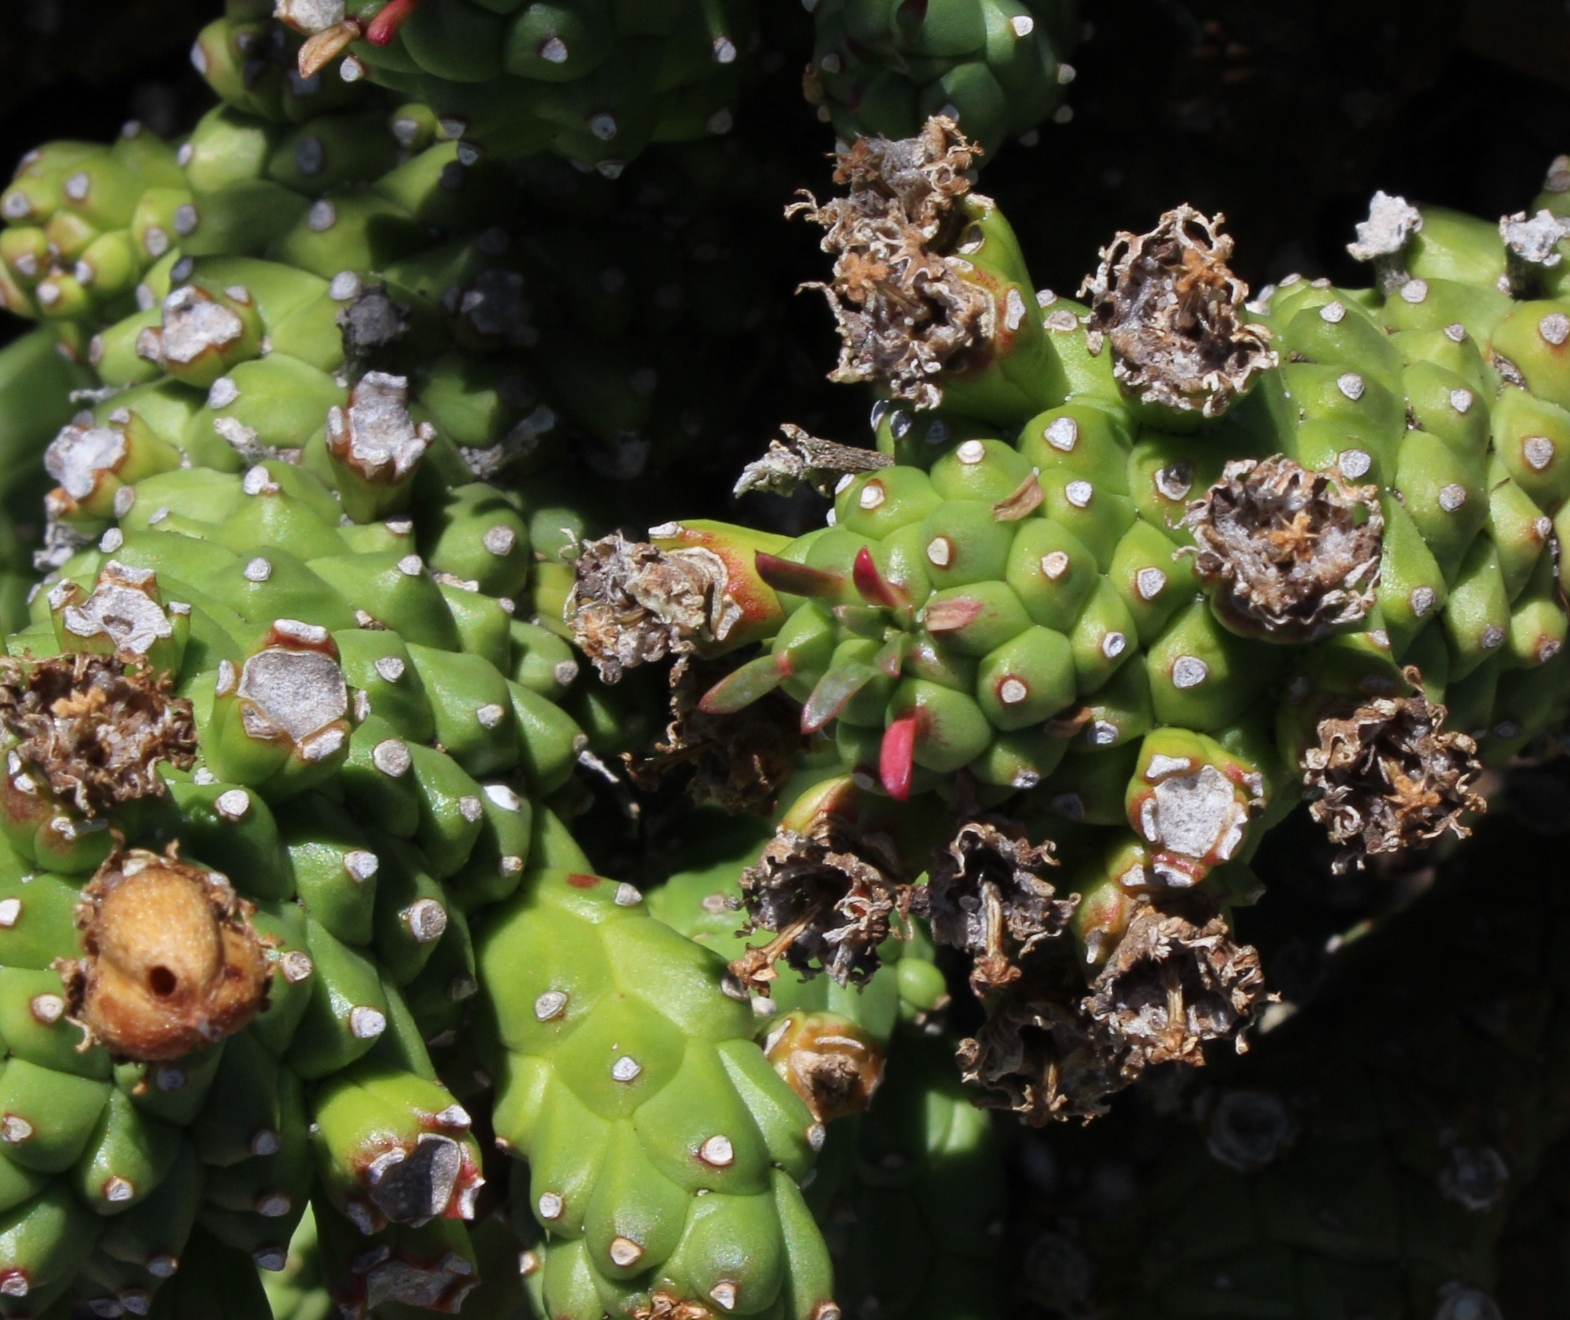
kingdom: Plantae
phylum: Tracheophyta
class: Magnoliopsida
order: Malpighiales
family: Euphorbiaceae
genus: Euphorbia
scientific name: Euphorbia caput-medusae
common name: Medusa's-head
